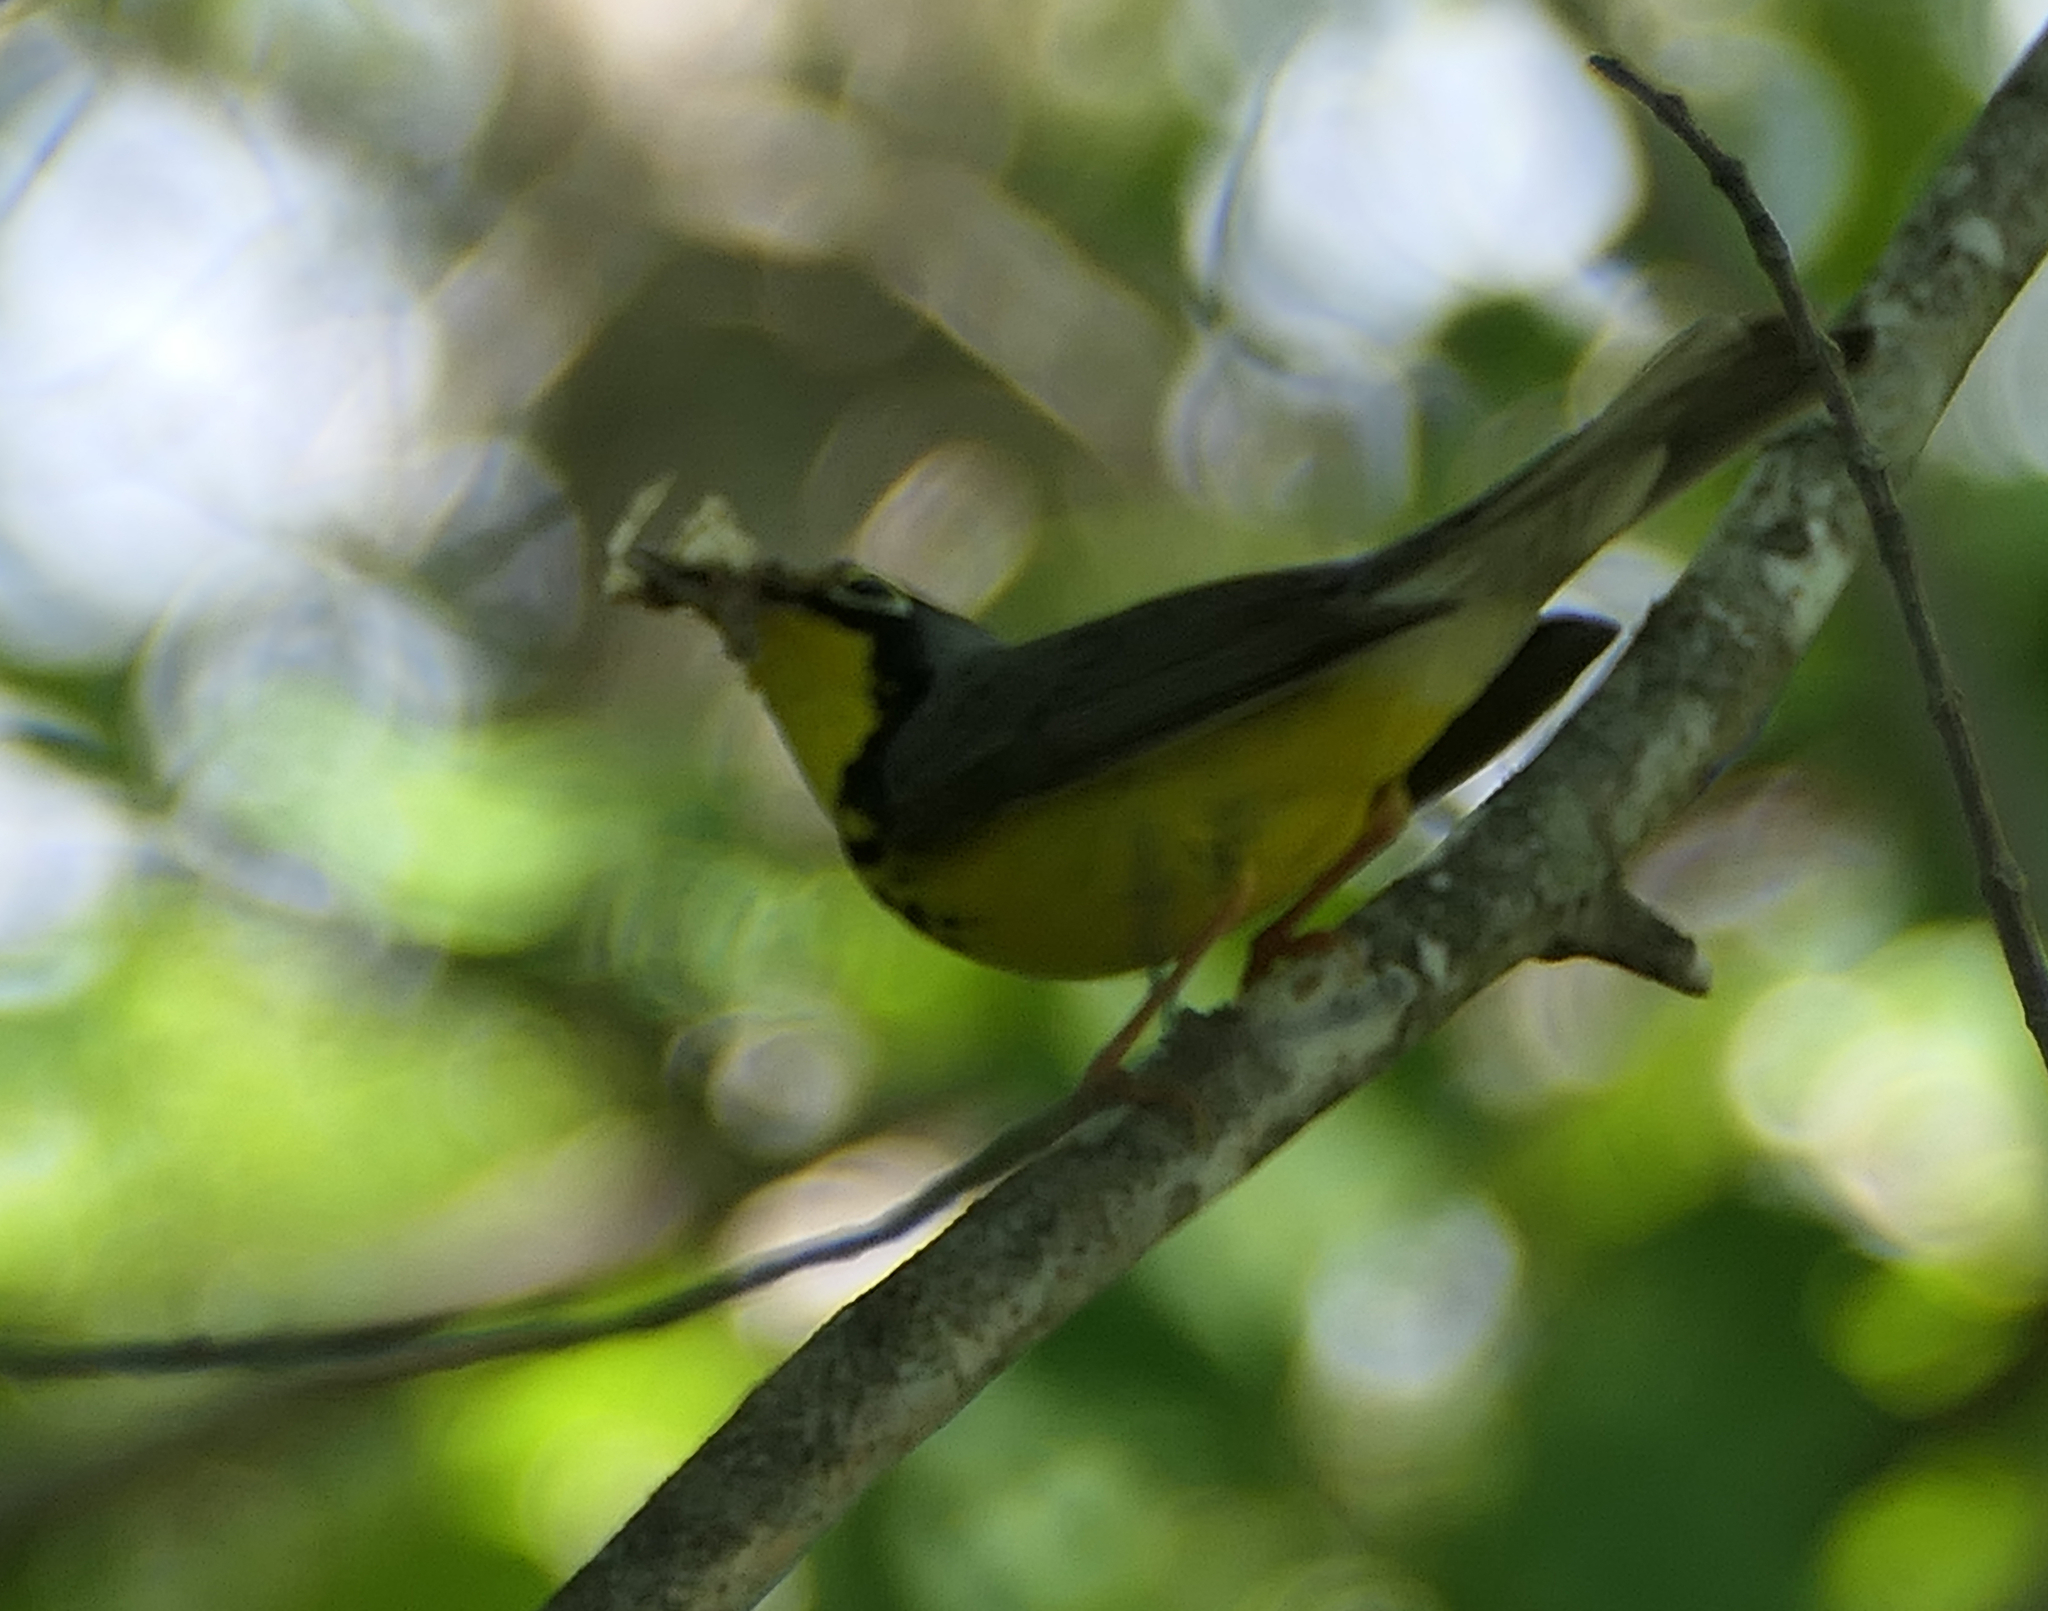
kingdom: Animalia
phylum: Chordata
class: Aves
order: Passeriformes
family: Parulidae
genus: Cardellina
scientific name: Cardellina canadensis
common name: Canada warbler
